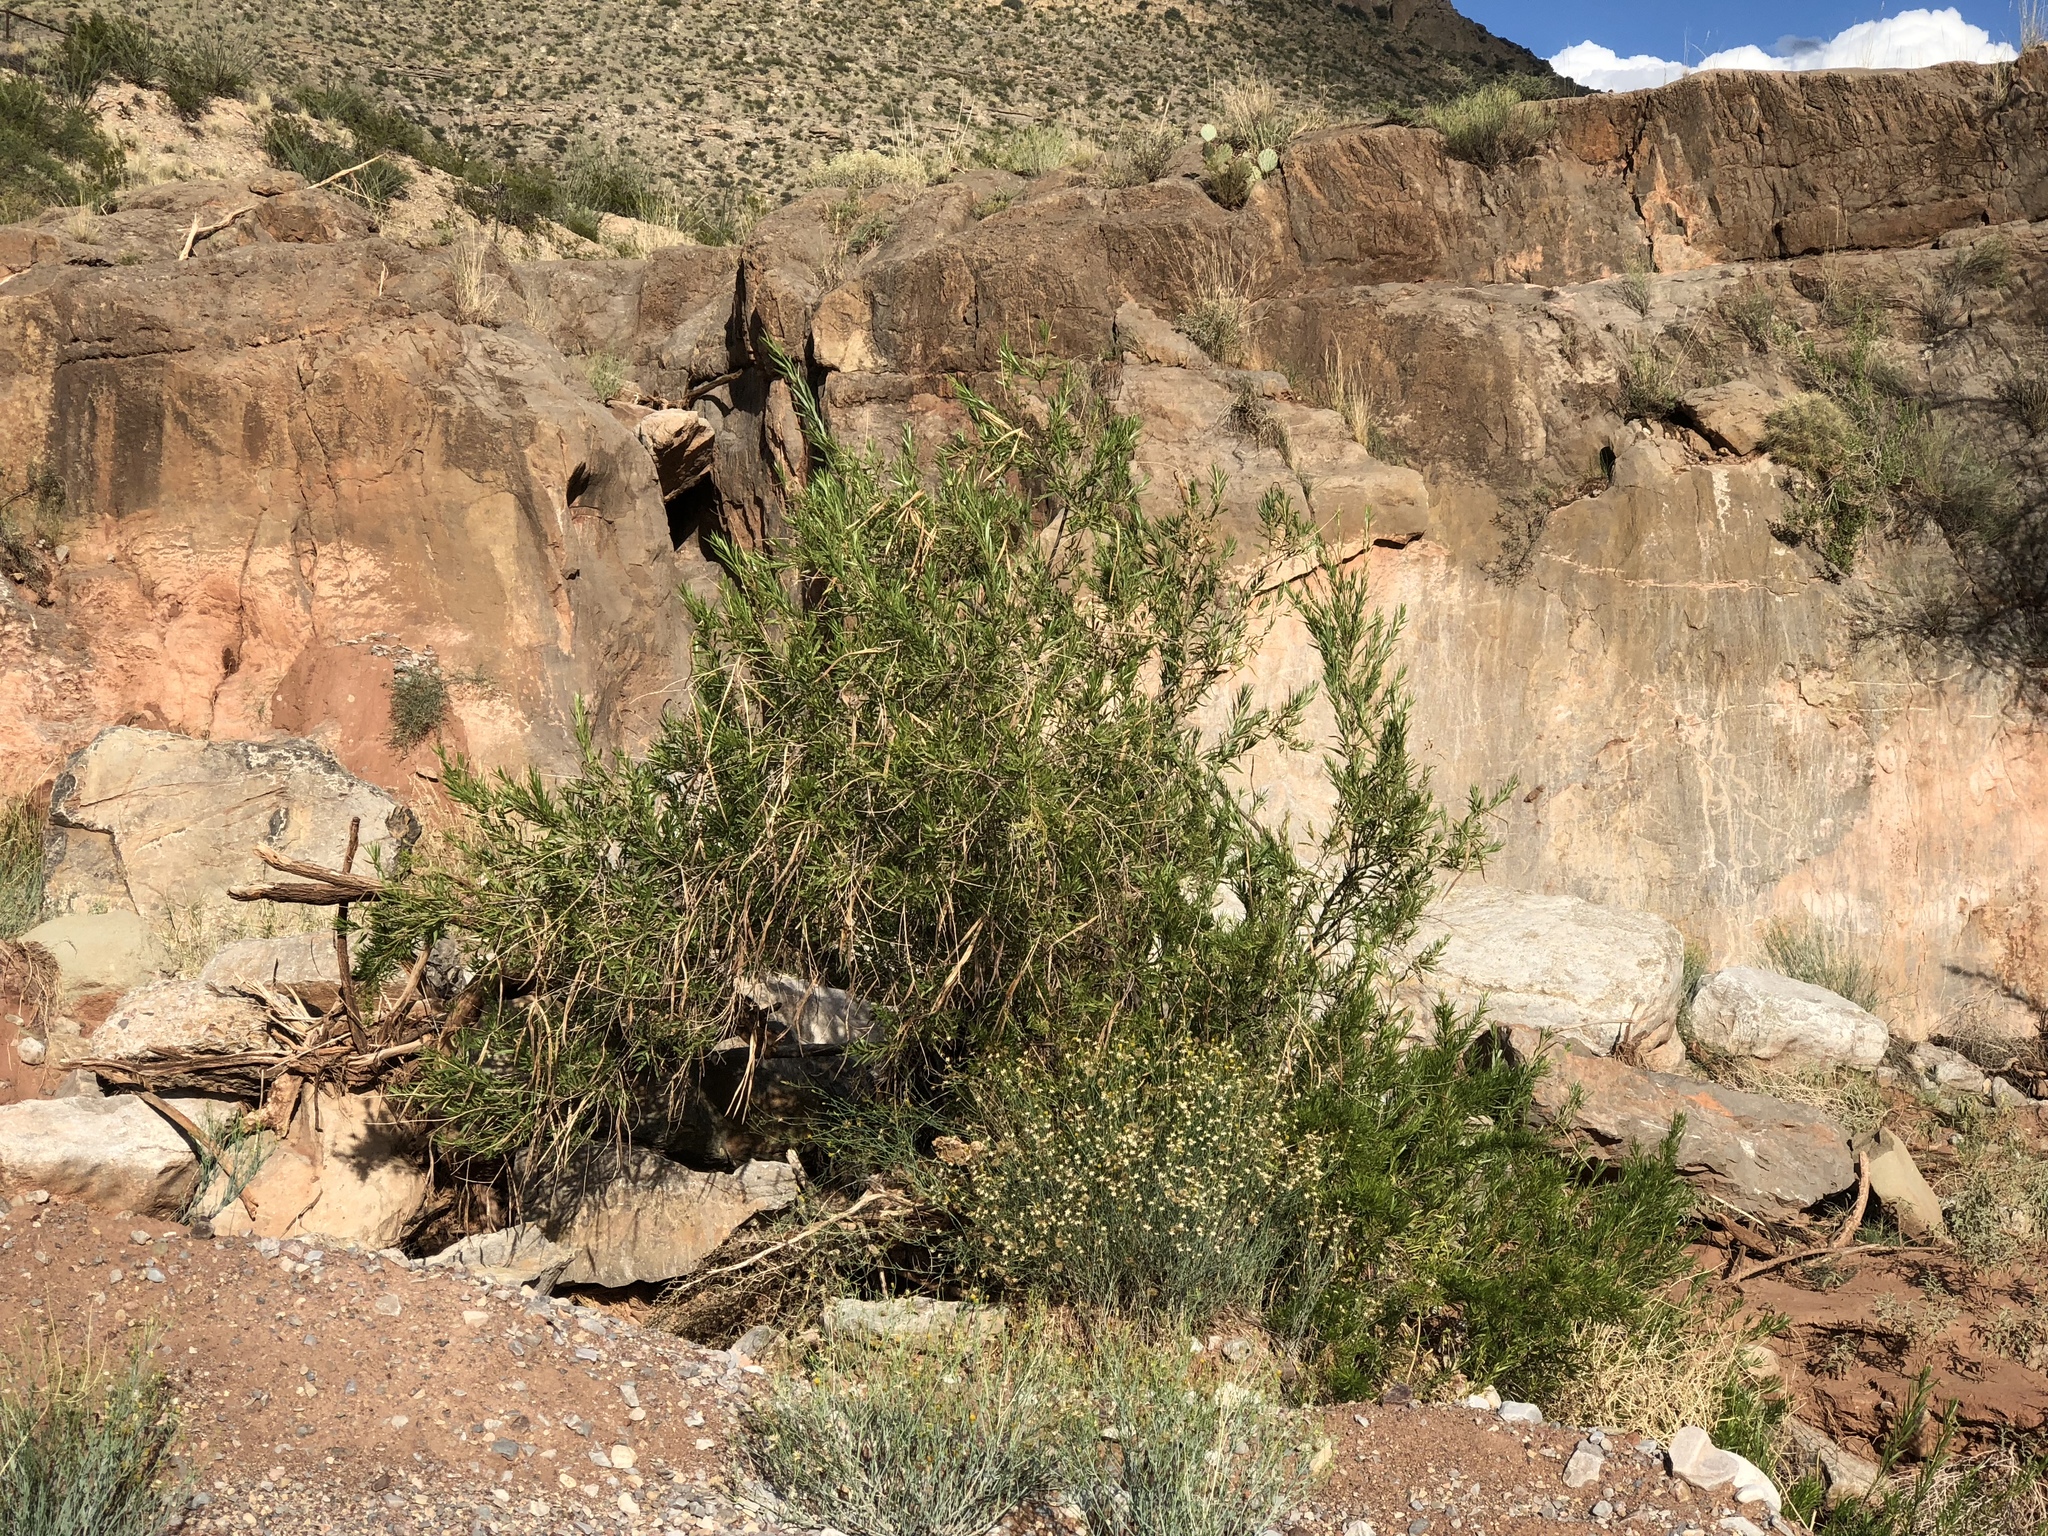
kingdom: Plantae
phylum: Tracheophyta
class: Magnoliopsida
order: Lamiales
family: Bignoniaceae
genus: Chilopsis
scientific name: Chilopsis linearis
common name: Desert-willow
